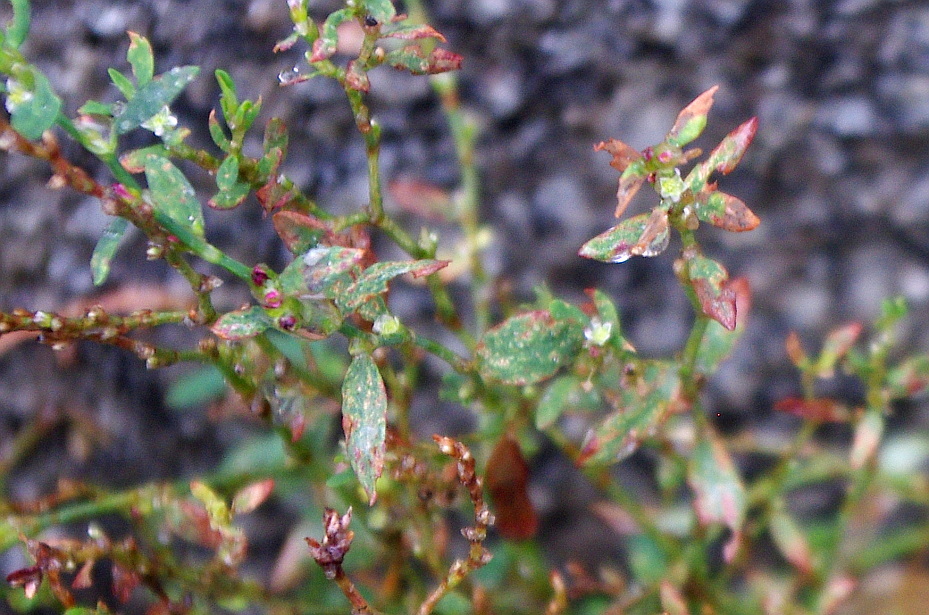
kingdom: Plantae
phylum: Tracheophyta
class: Magnoliopsida
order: Caryophyllales
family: Polygonaceae
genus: Polygonum
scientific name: Polygonum
